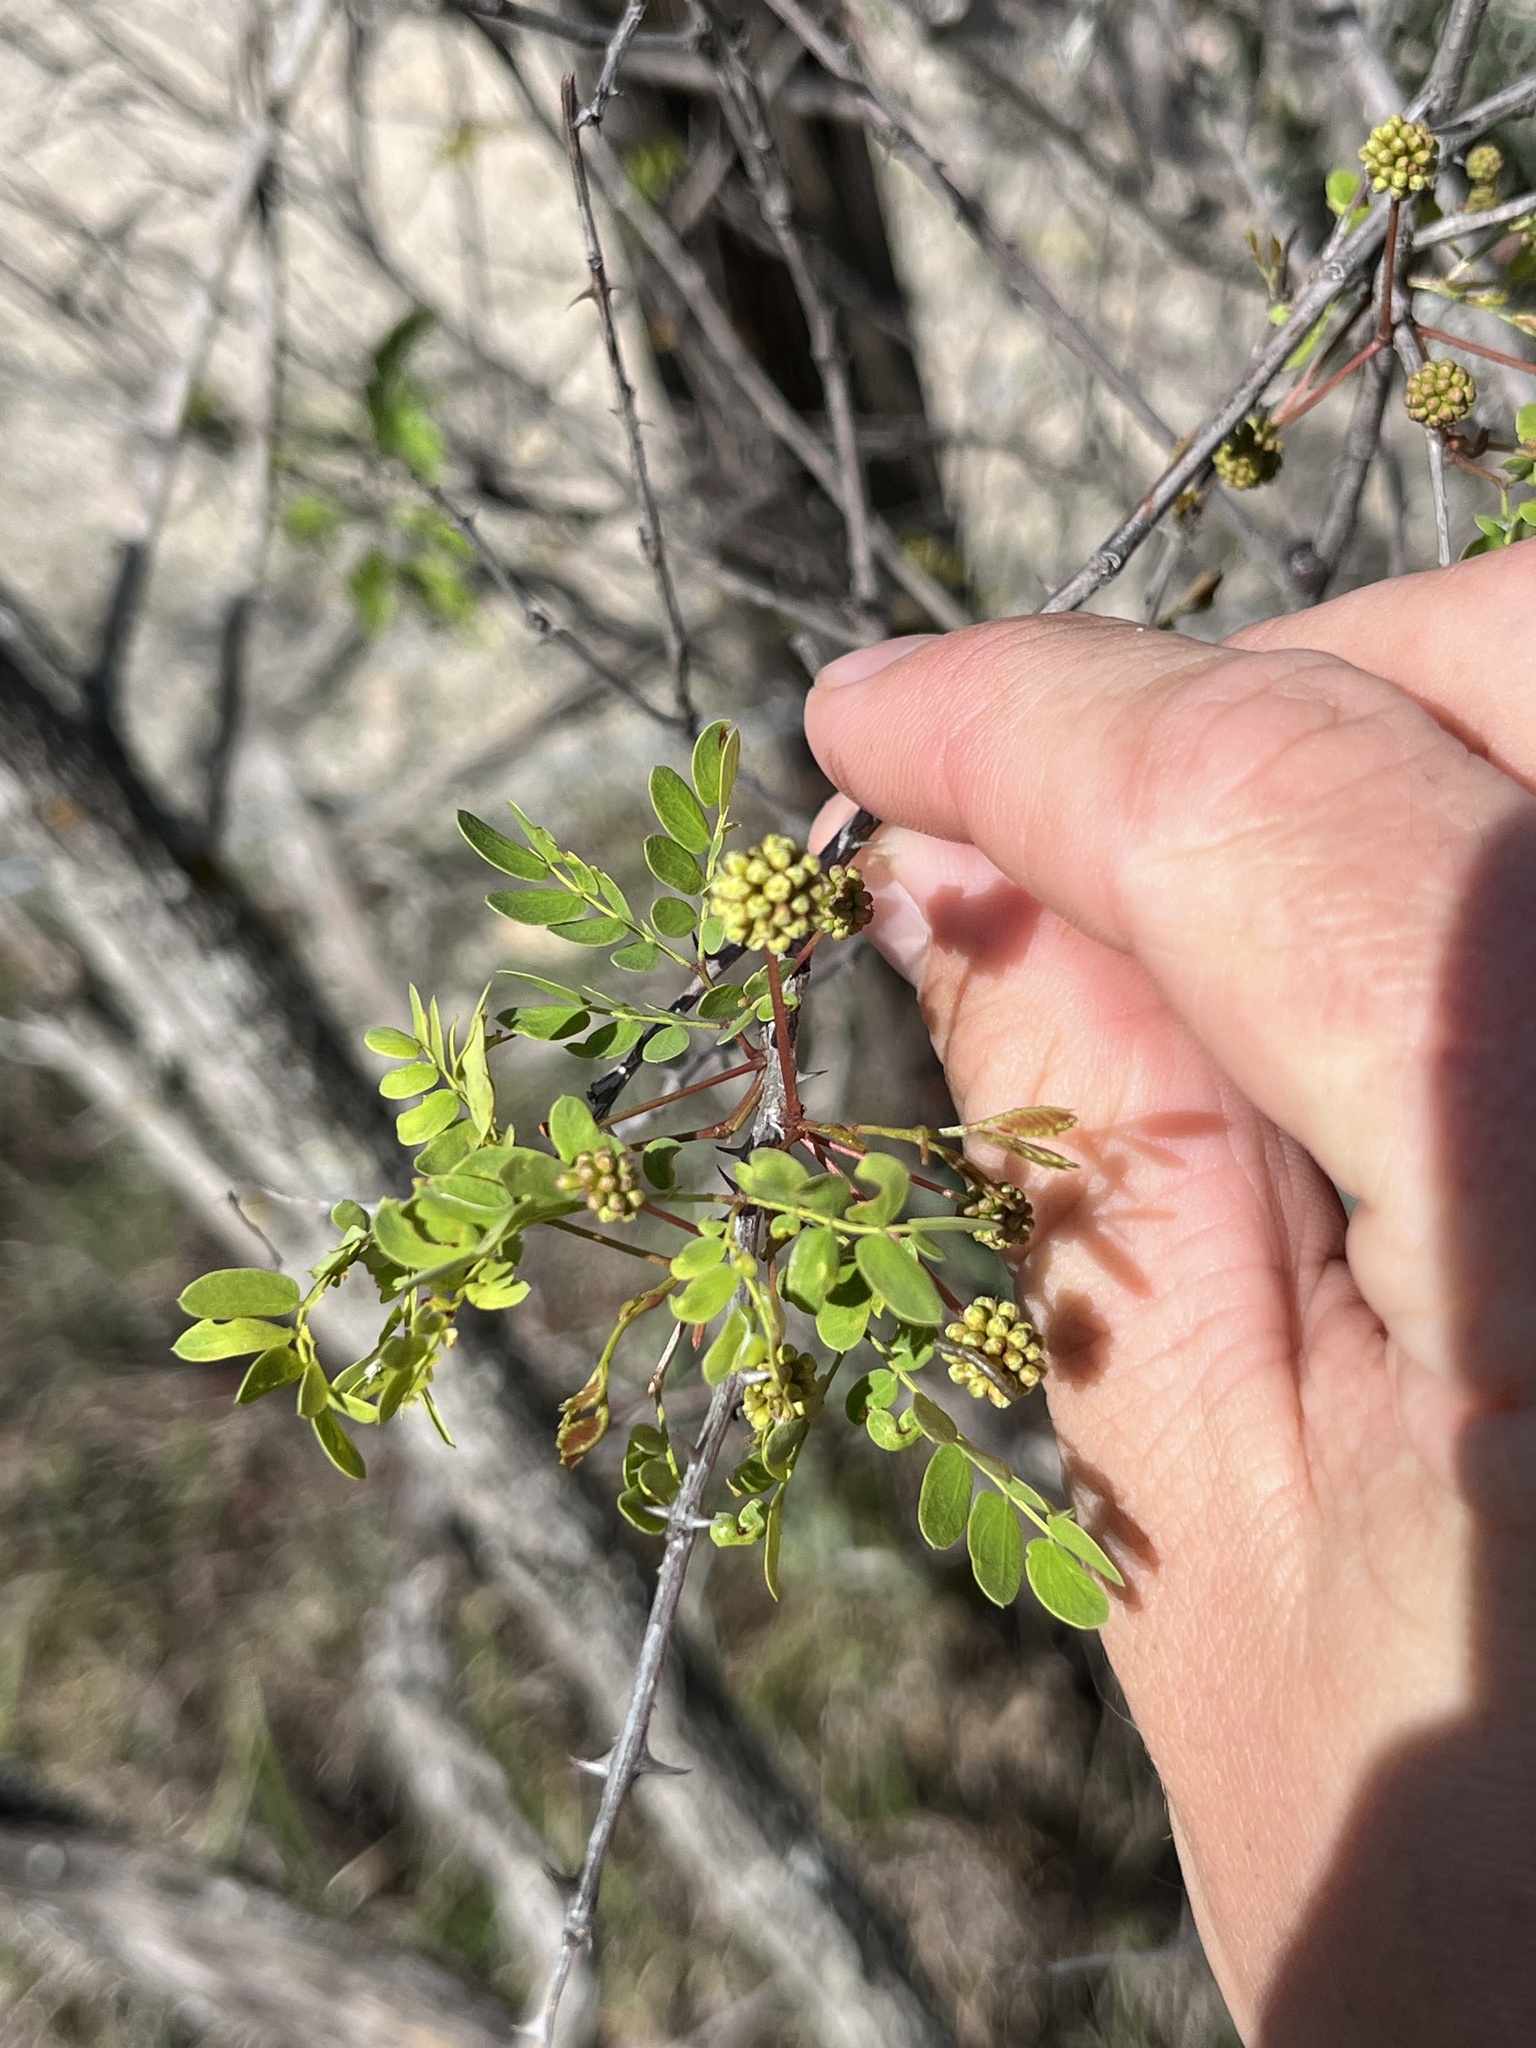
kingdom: Plantae
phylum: Tracheophyta
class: Magnoliopsida
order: Fabales
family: Fabaceae
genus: Senegalia
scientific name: Senegalia roemeriana
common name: Roemer's acacia
